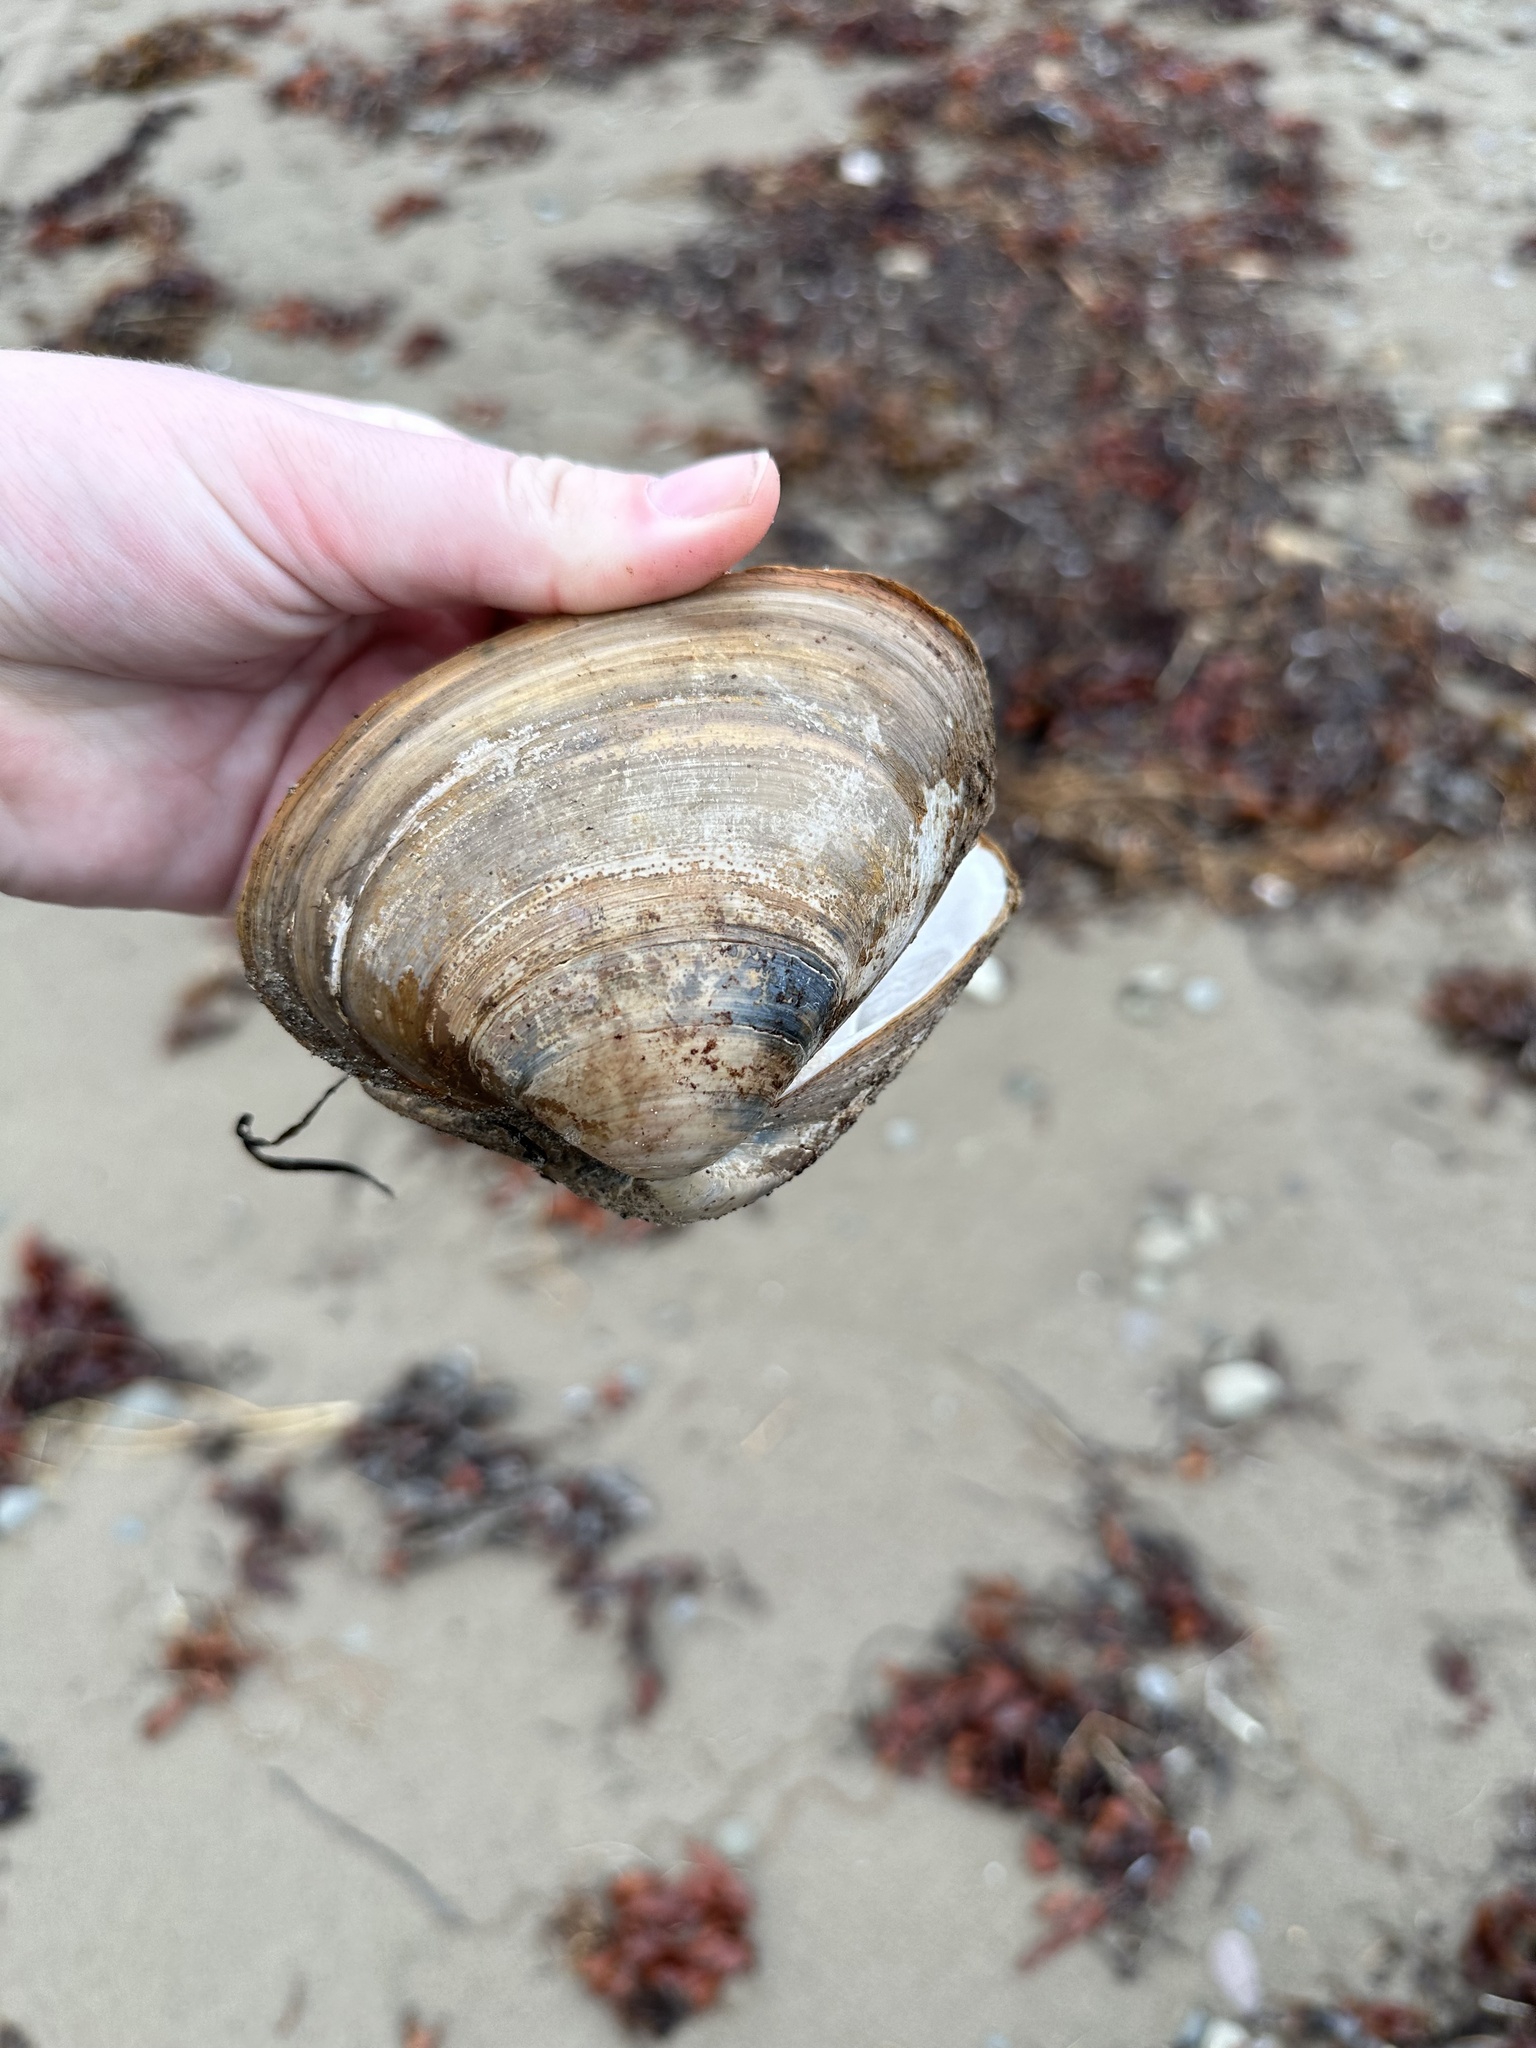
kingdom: Animalia
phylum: Mollusca
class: Bivalvia
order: Venerida
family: Mactridae
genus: Spisula
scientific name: Spisula solidissima
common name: Atlantic surf clam
